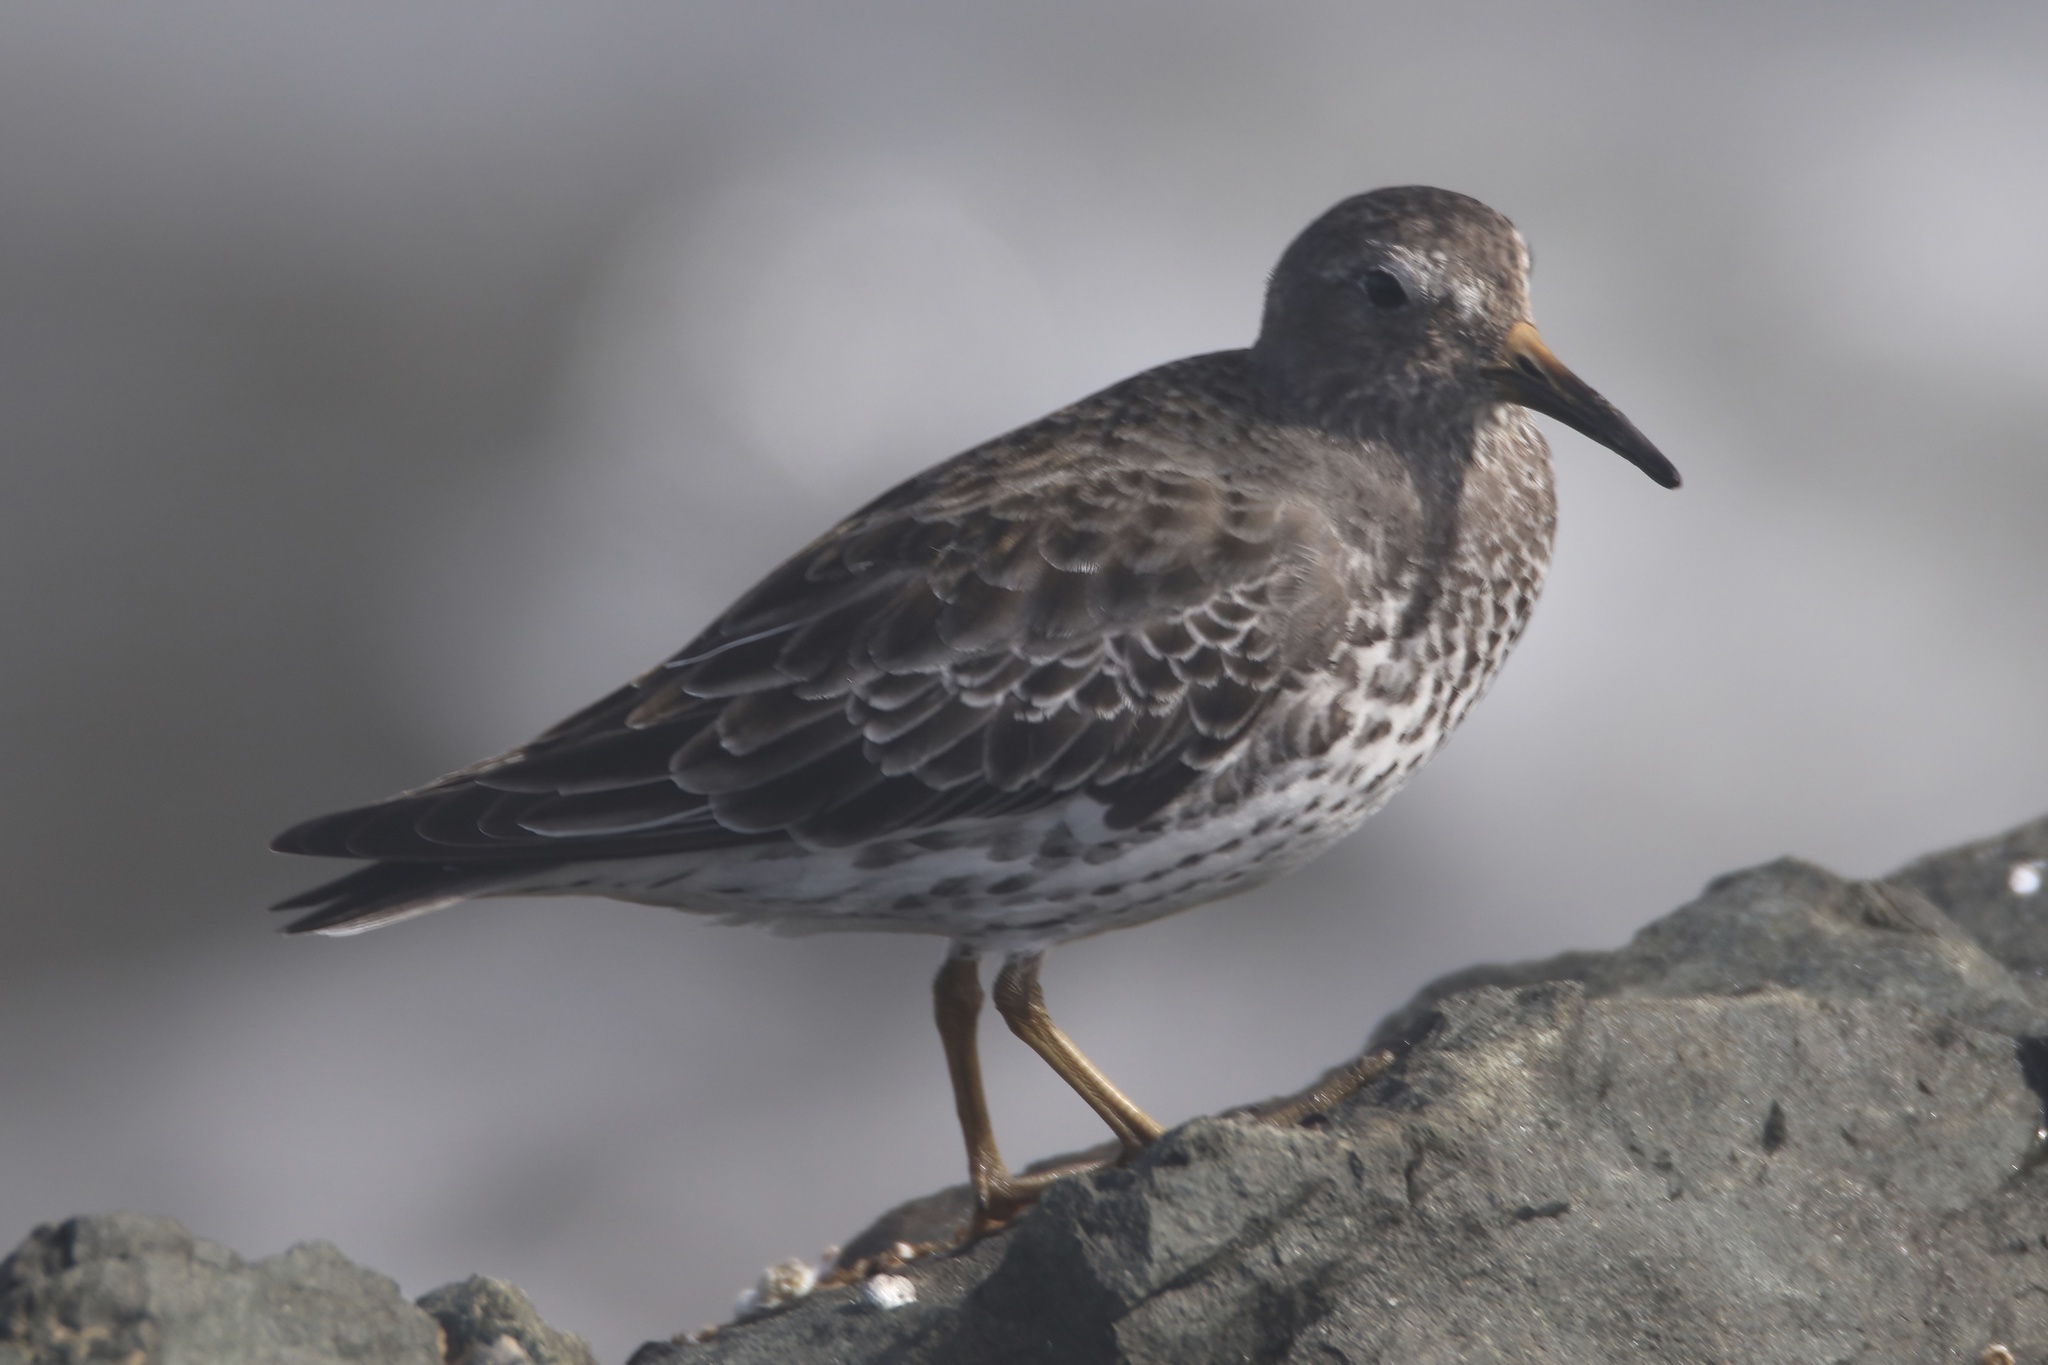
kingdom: Animalia
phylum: Chordata
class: Aves
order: Charadriiformes
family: Scolopacidae
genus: Calidris
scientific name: Calidris ptilocnemis
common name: Rock sandpiper
